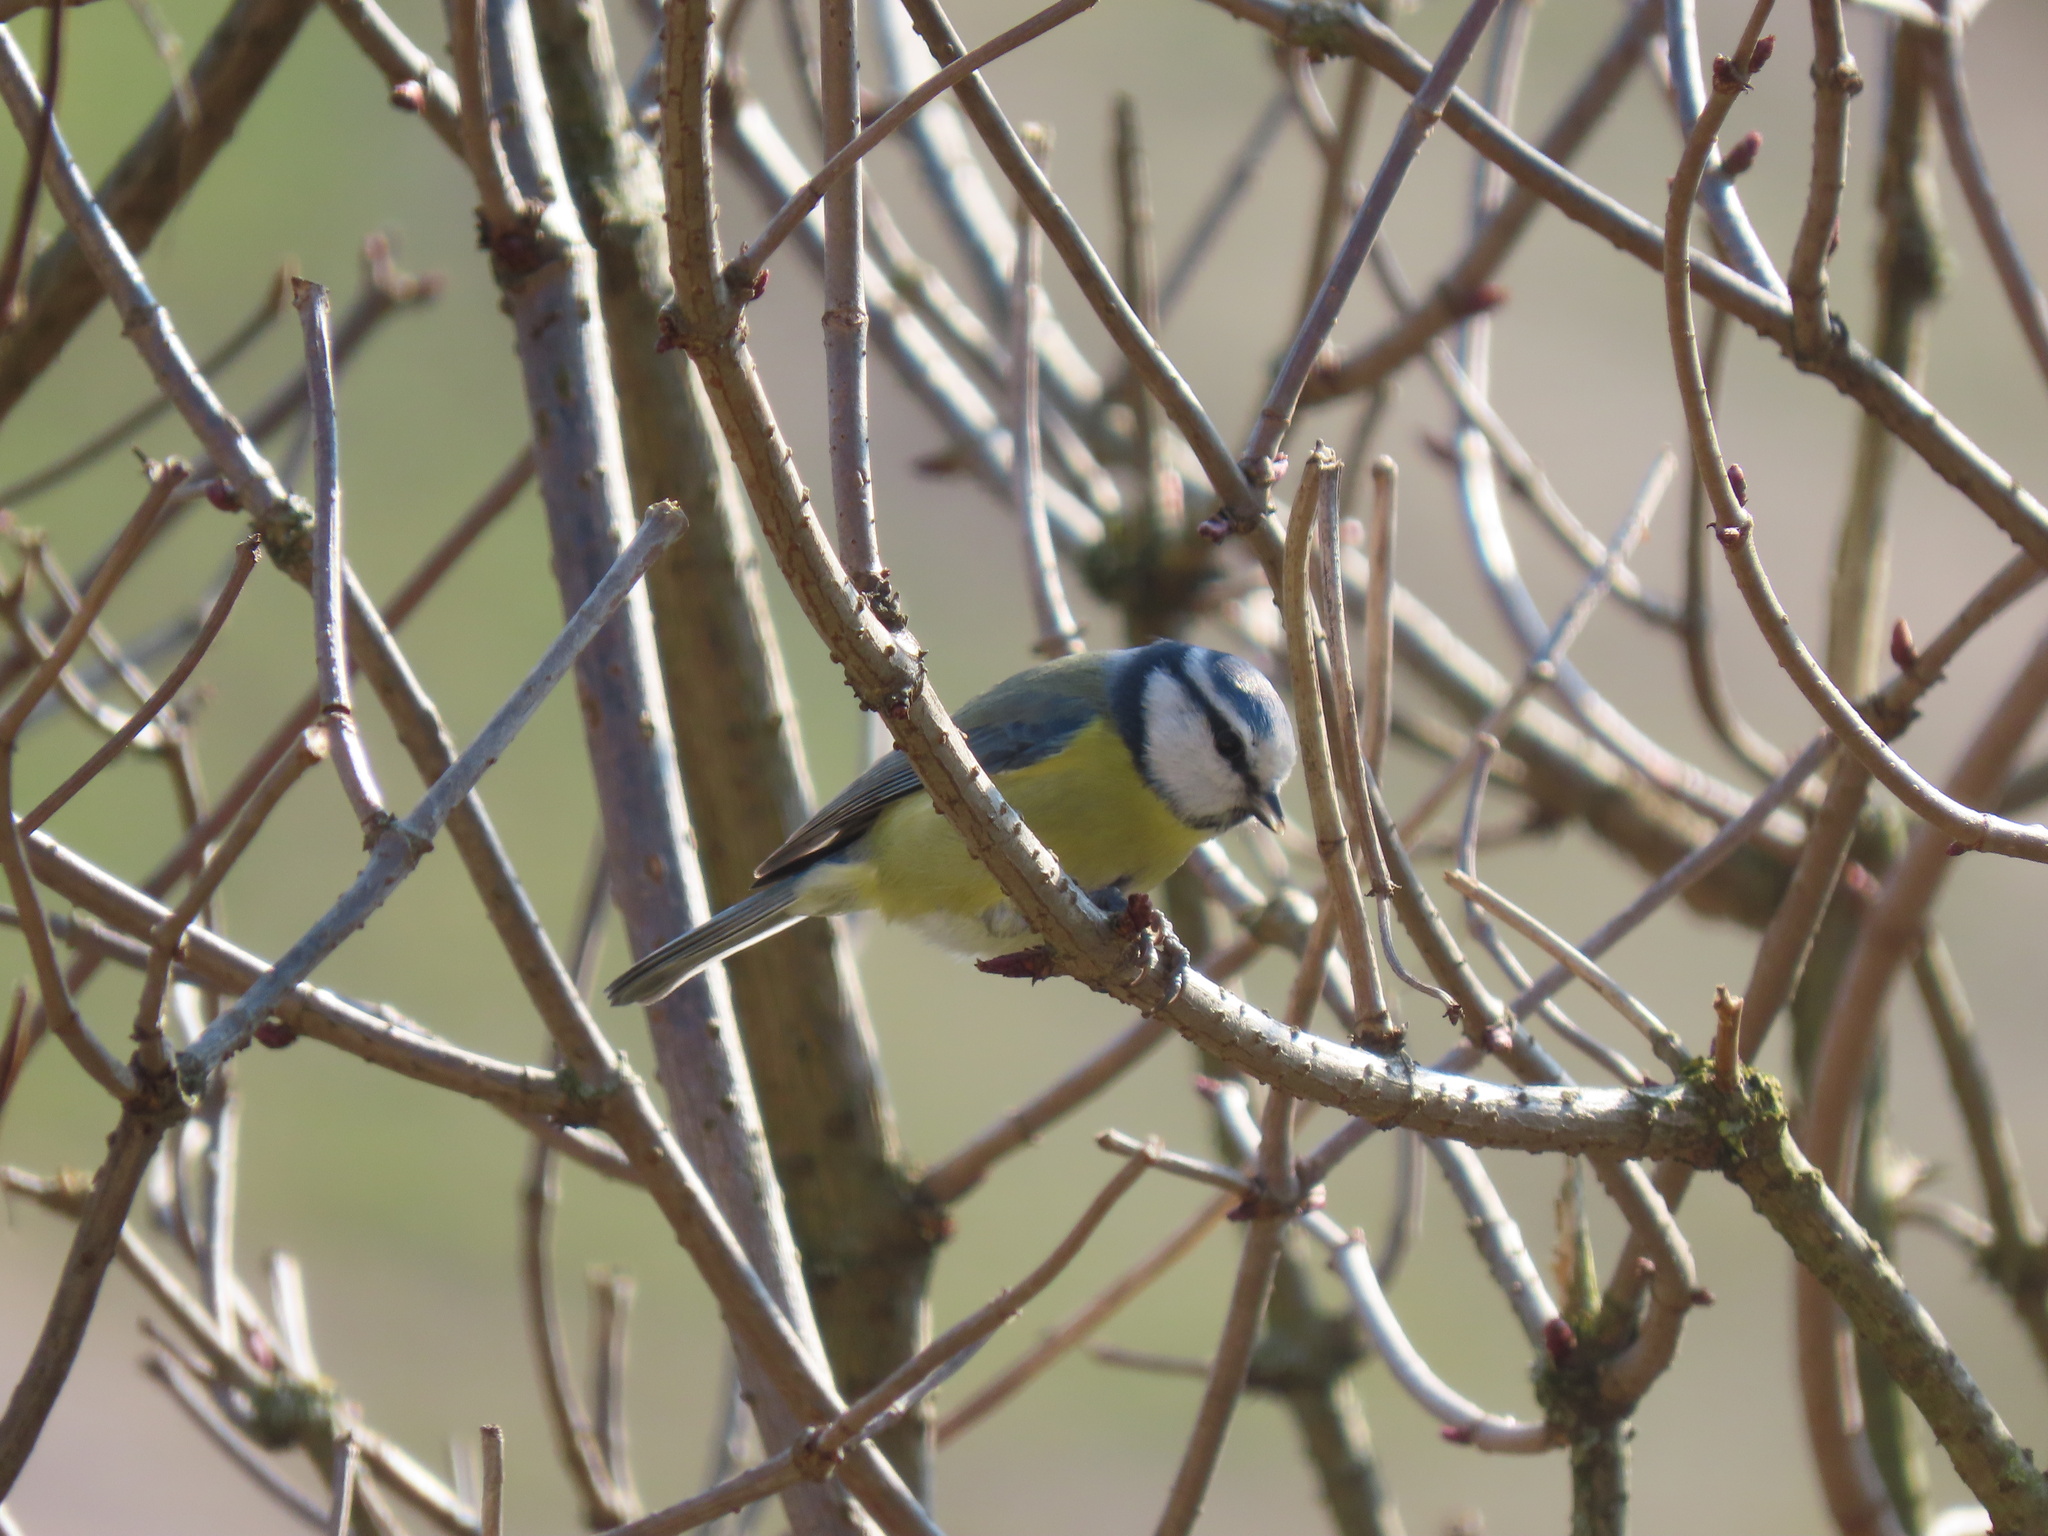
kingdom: Animalia
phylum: Chordata
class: Aves
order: Passeriformes
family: Paridae
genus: Cyanistes
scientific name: Cyanistes caeruleus
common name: Eurasian blue tit
